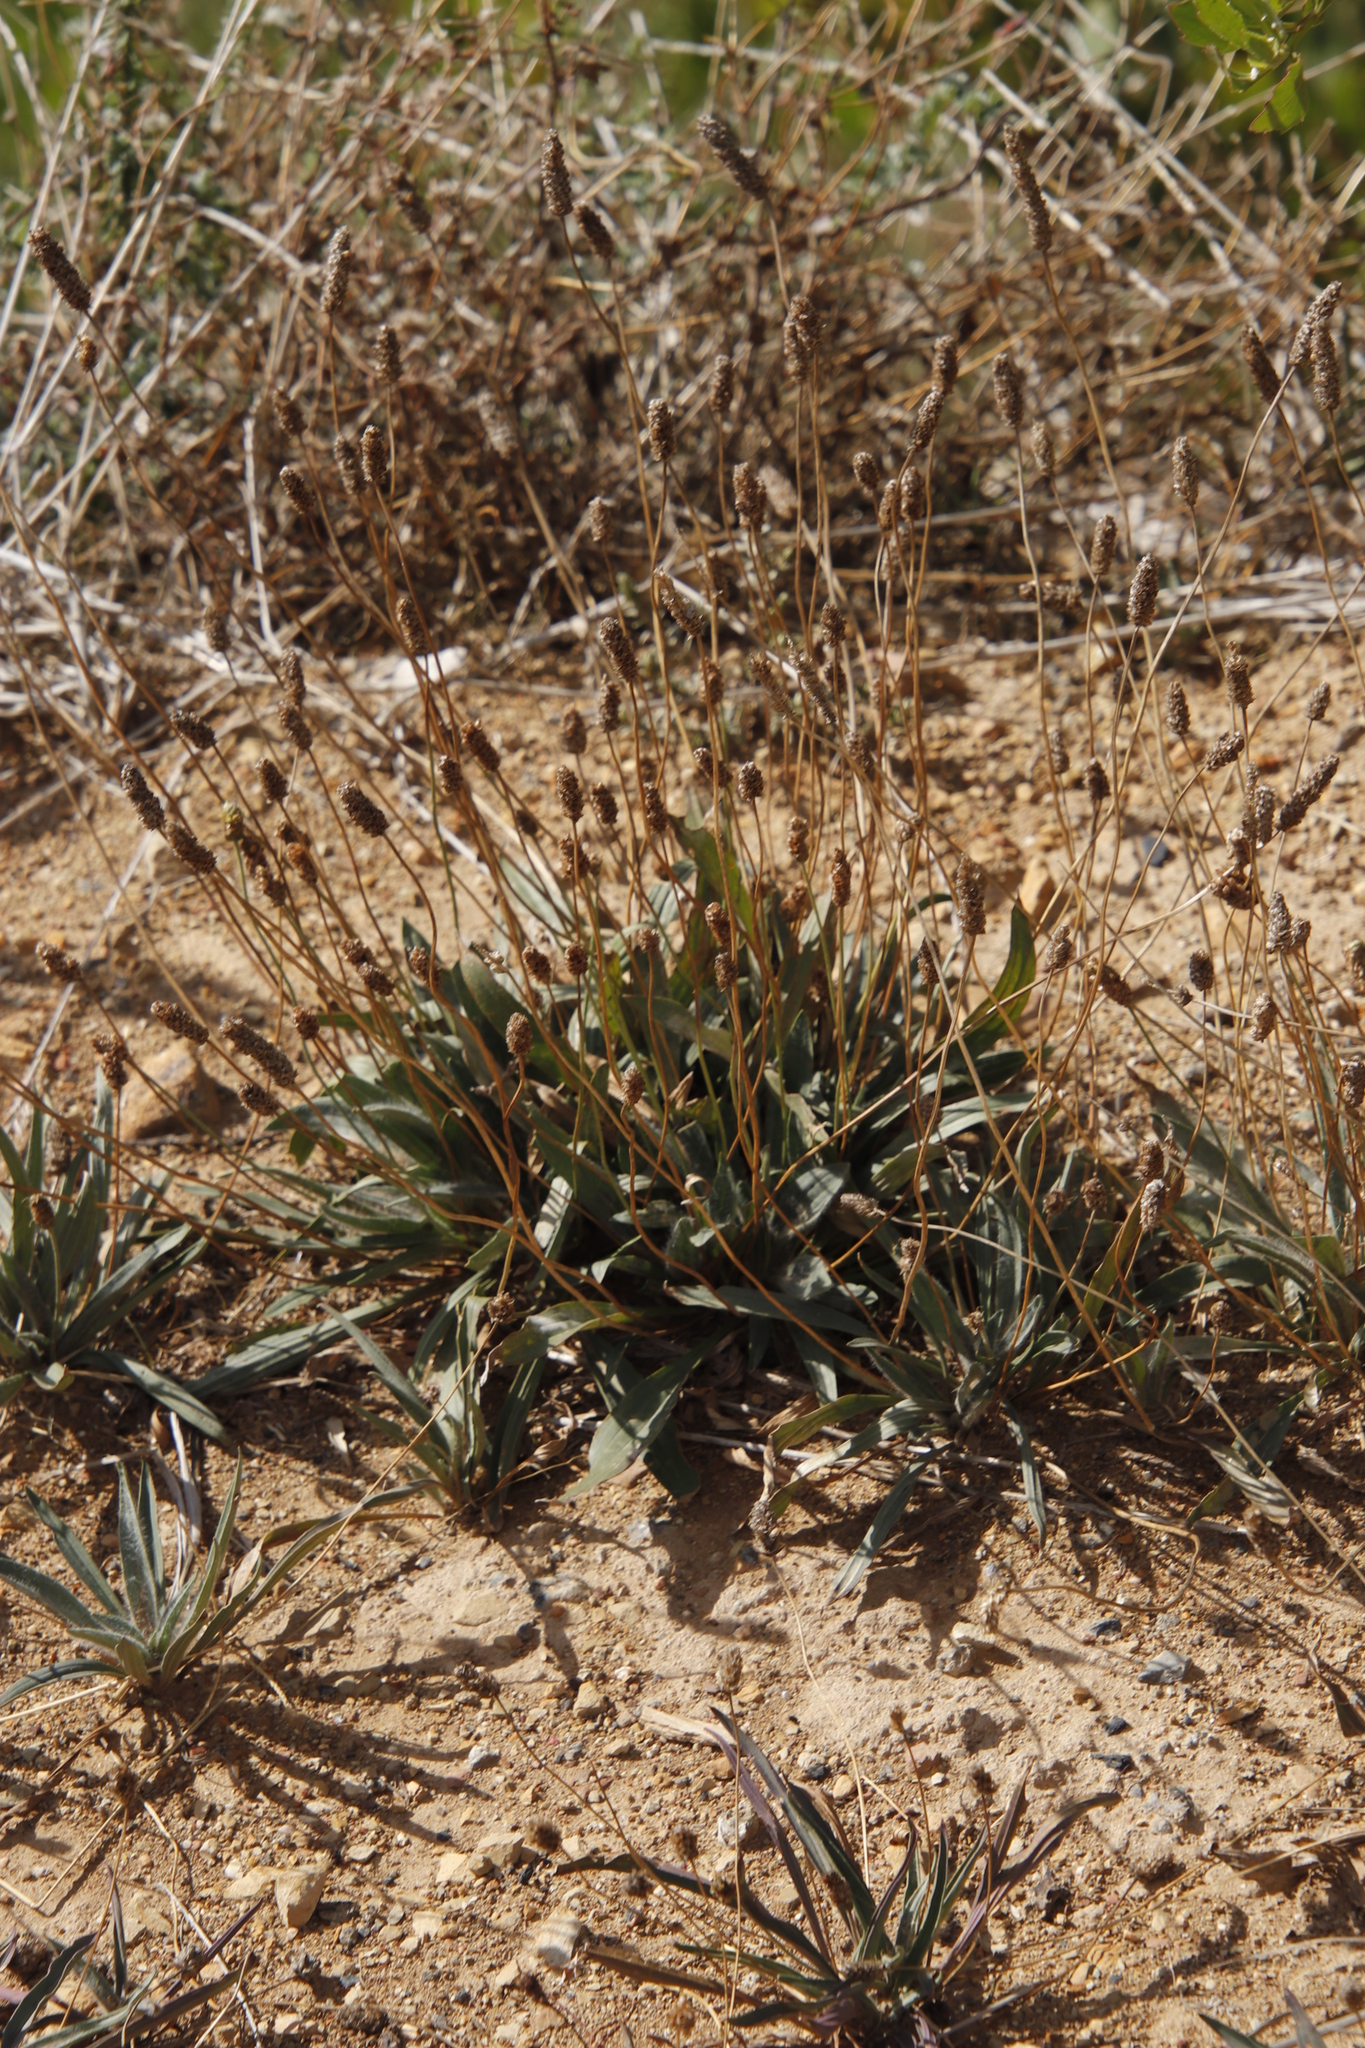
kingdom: Plantae
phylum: Tracheophyta
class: Magnoliopsida
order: Lamiales
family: Plantaginaceae
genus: Plantago
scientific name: Plantago lanceolata
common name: Ribwort plantain
